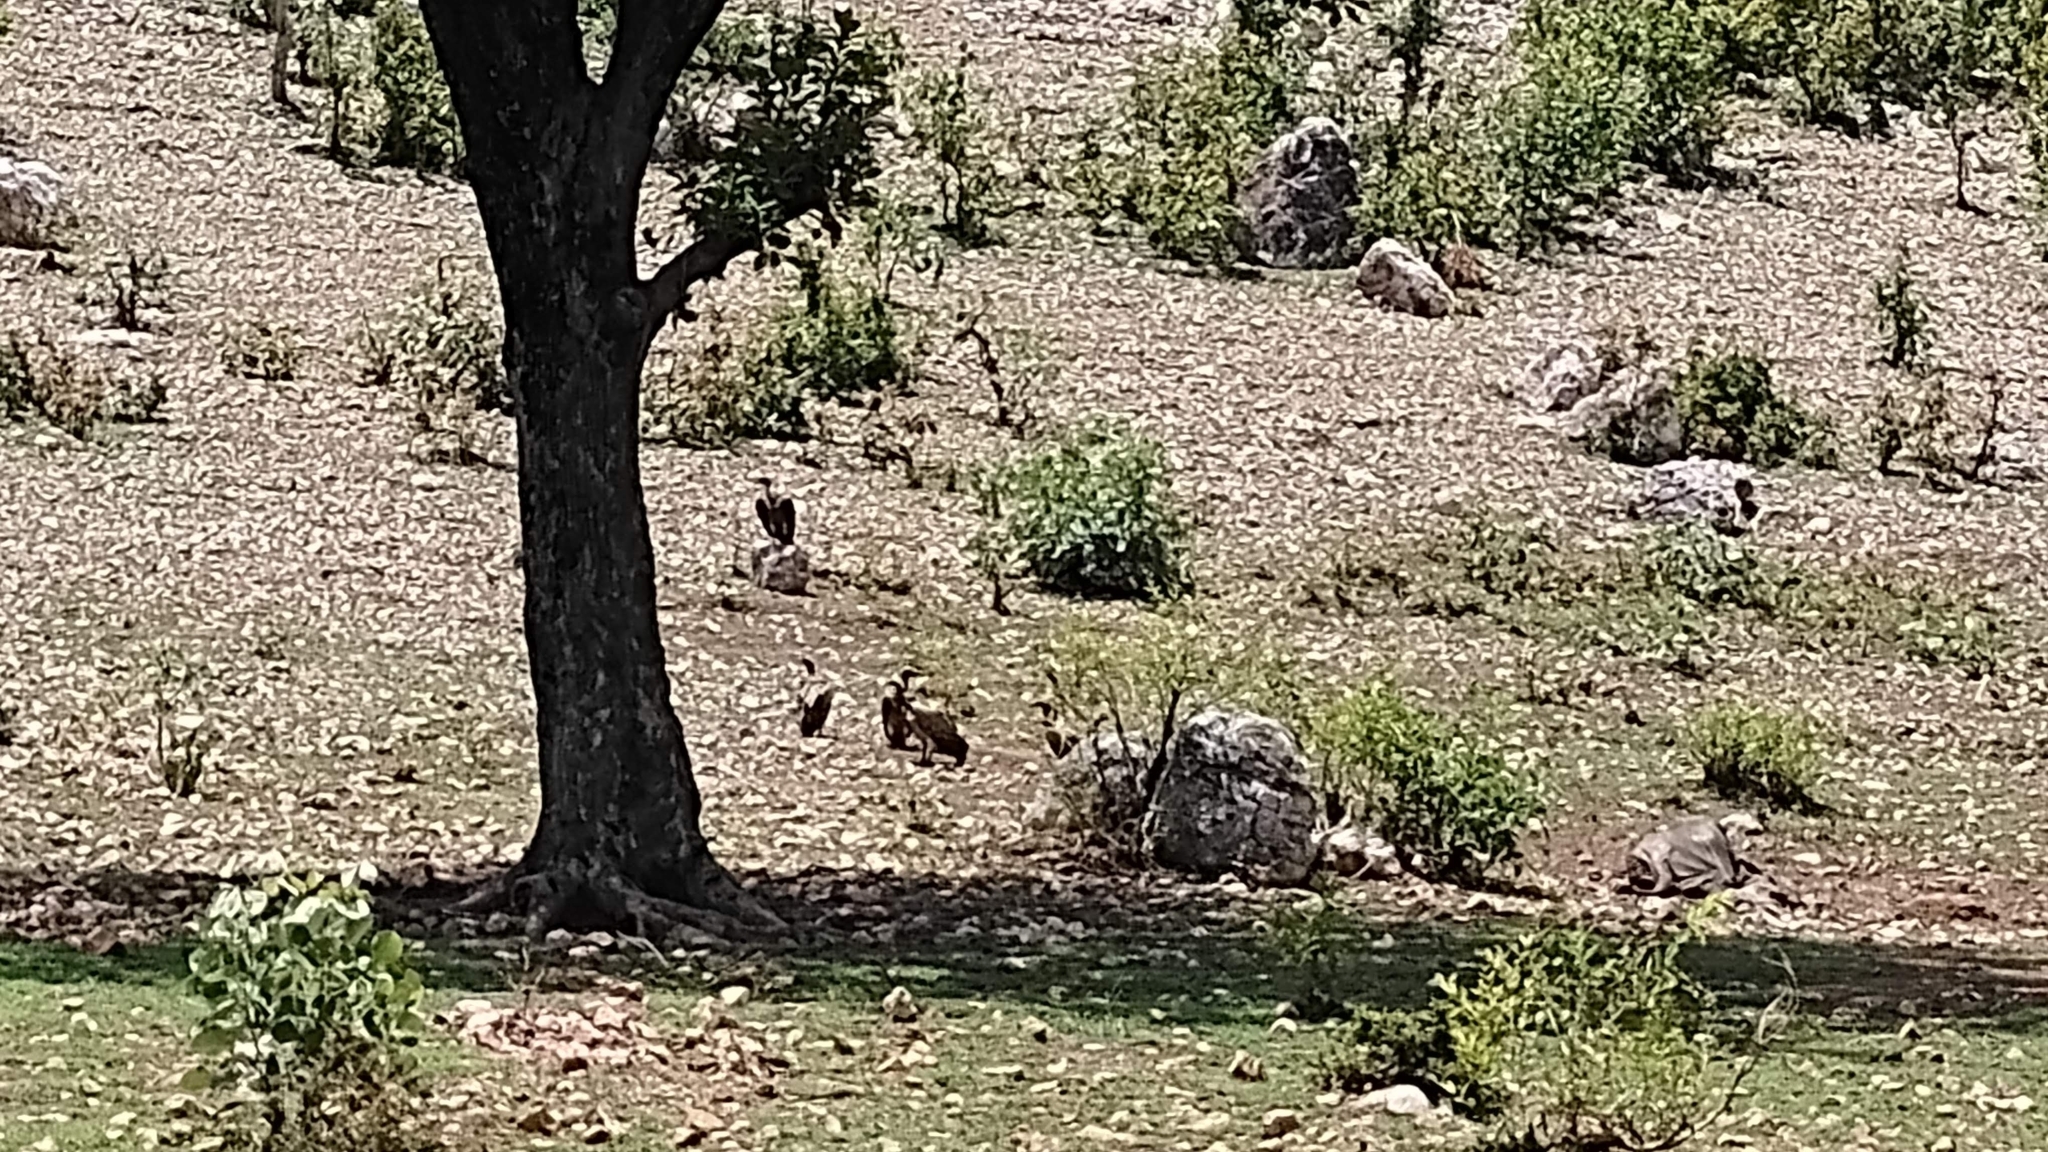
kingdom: Animalia
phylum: Chordata
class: Aves
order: Accipitriformes
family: Accipitridae
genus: Gyps
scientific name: Gyps fulvus
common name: Griffon vulture
